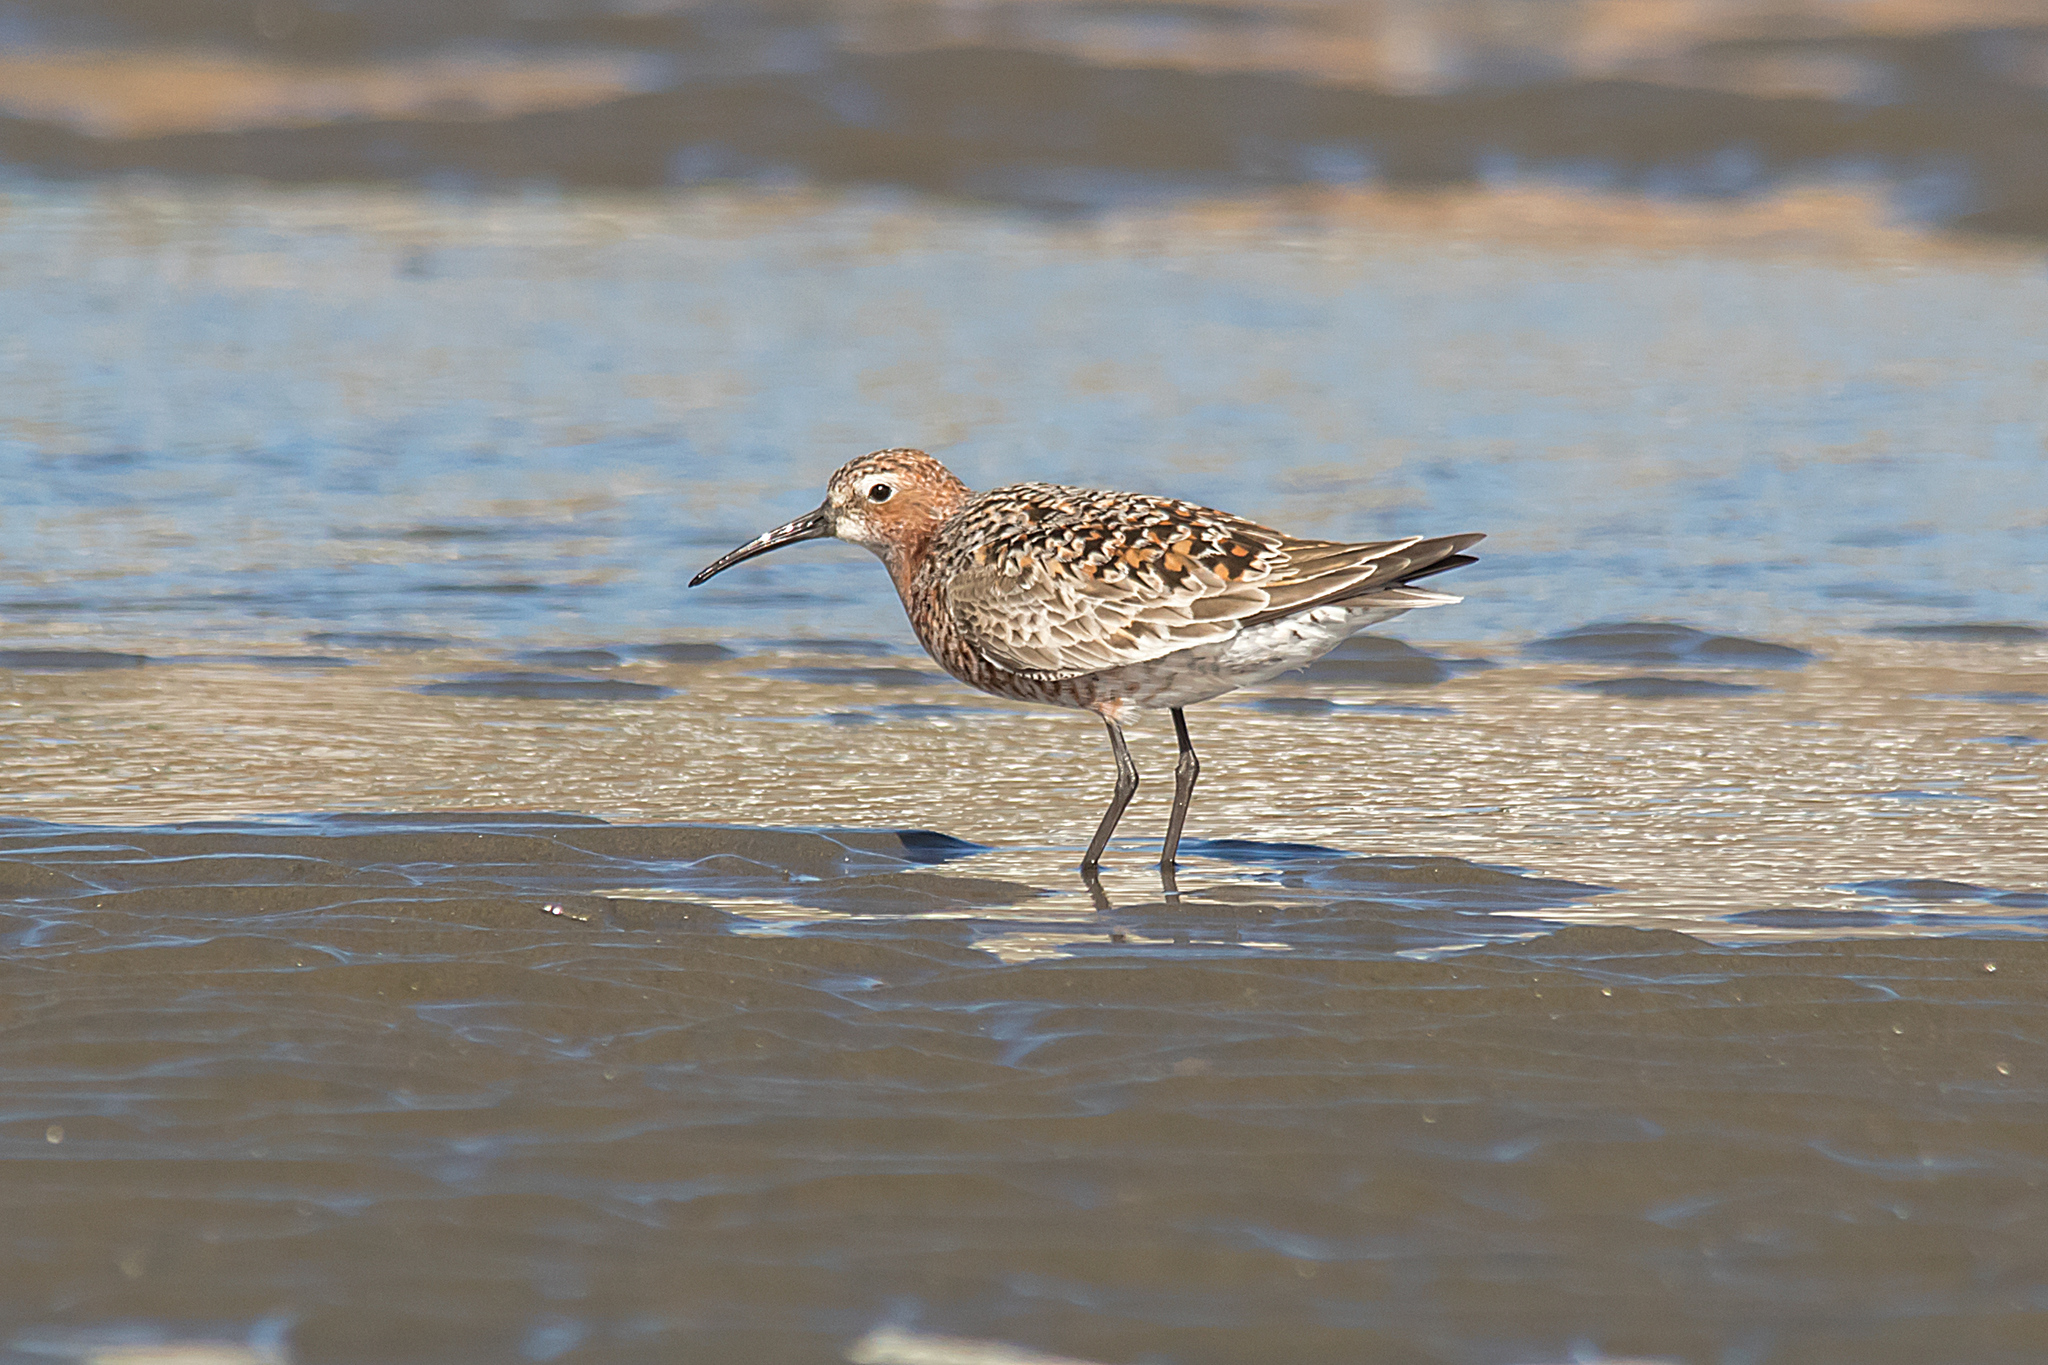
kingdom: Animalia
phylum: Chordata
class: Aves
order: Charadriiformes
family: Scolopacidae
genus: Calidris
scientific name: Calidris ferruginea
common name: Curlew sandpiper
